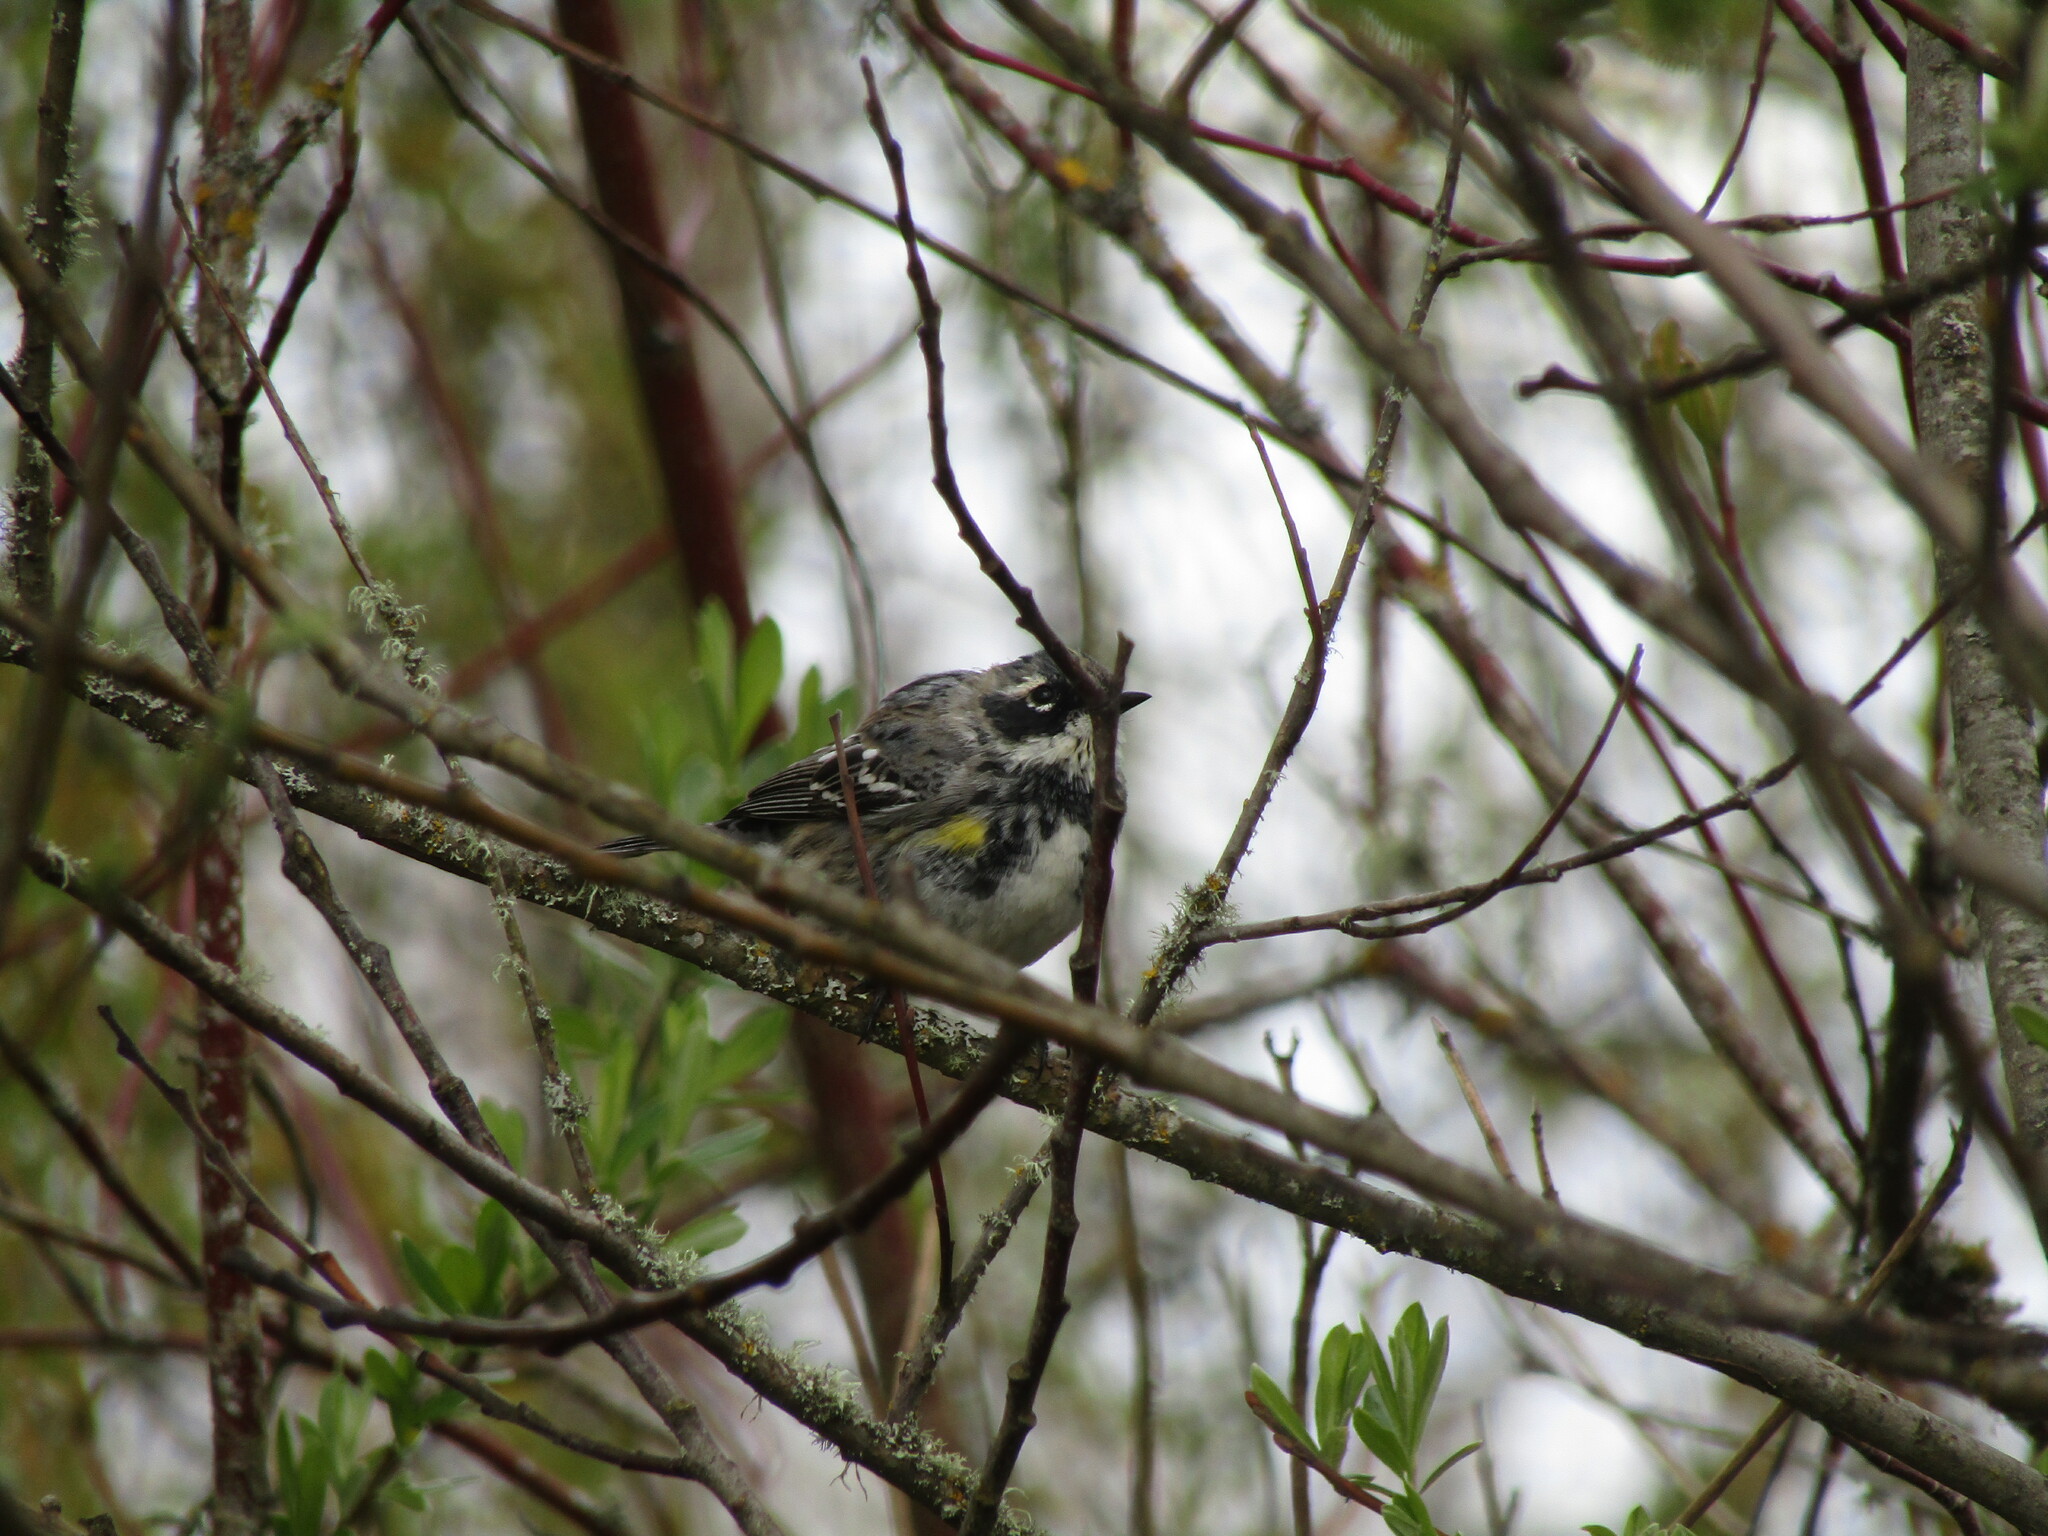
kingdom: Animalia
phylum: Chordata
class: Aves
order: Passeriformes
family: Parulidae
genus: Setophaga
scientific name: Setophaga coronata
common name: Myrtle warbler
